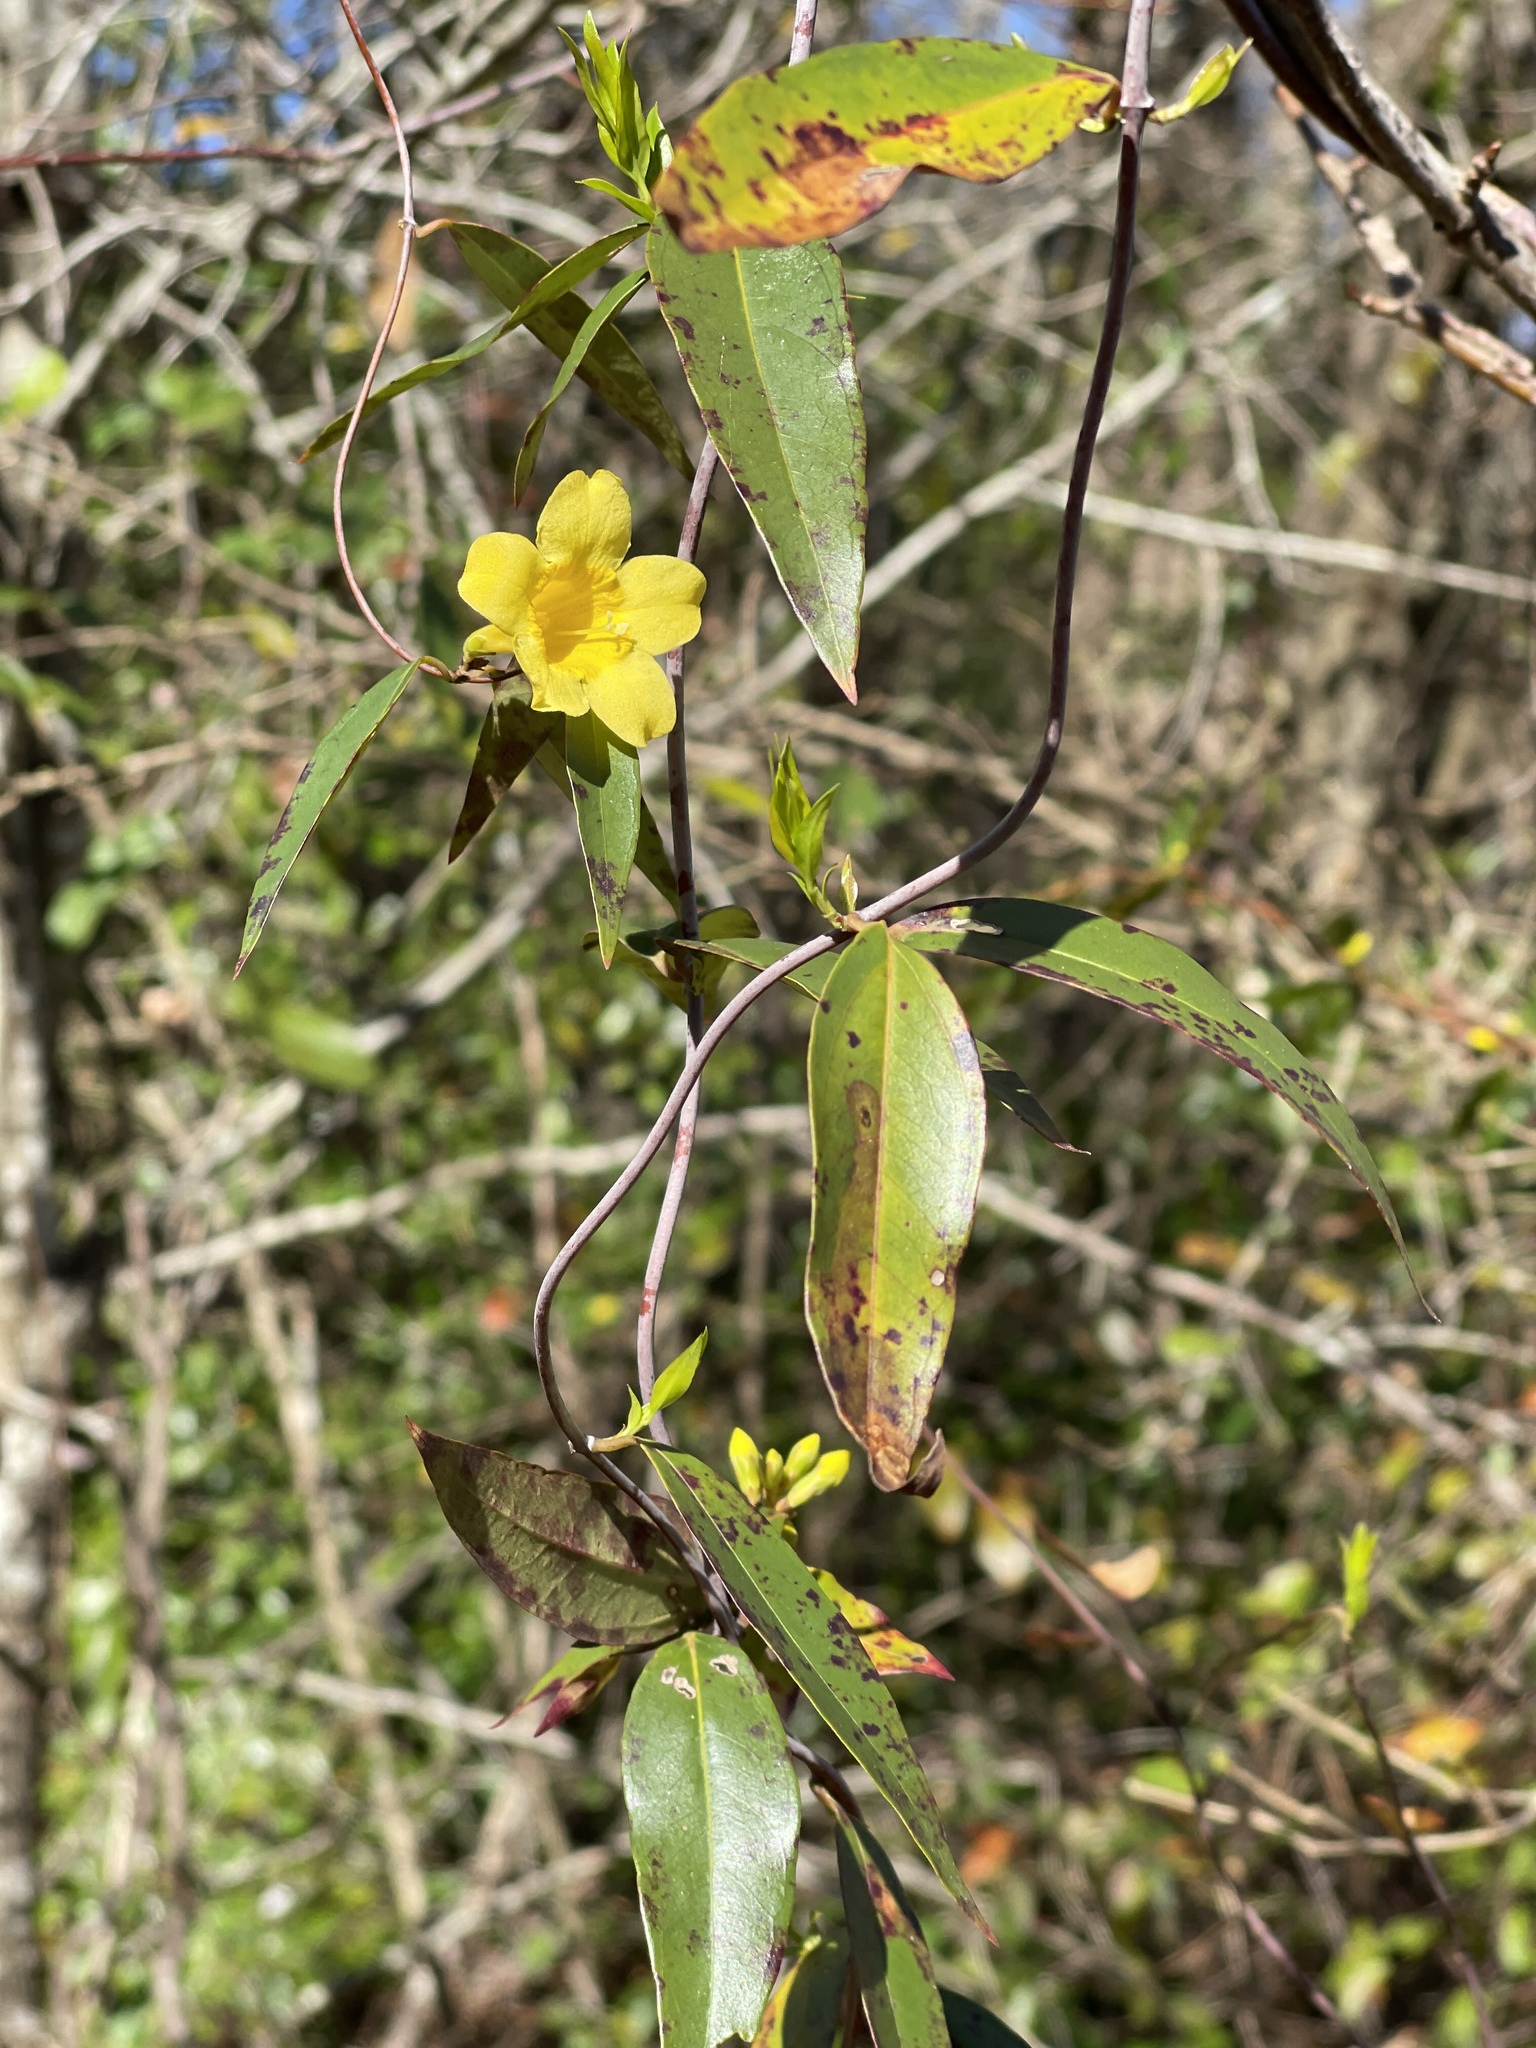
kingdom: Plantae
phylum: Tracheophyta
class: Magnoliopsida
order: Gentianales
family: Gelsemiaceae
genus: Gelsemium
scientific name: Gelsemium sempervirens
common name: Carolina-jasmine
